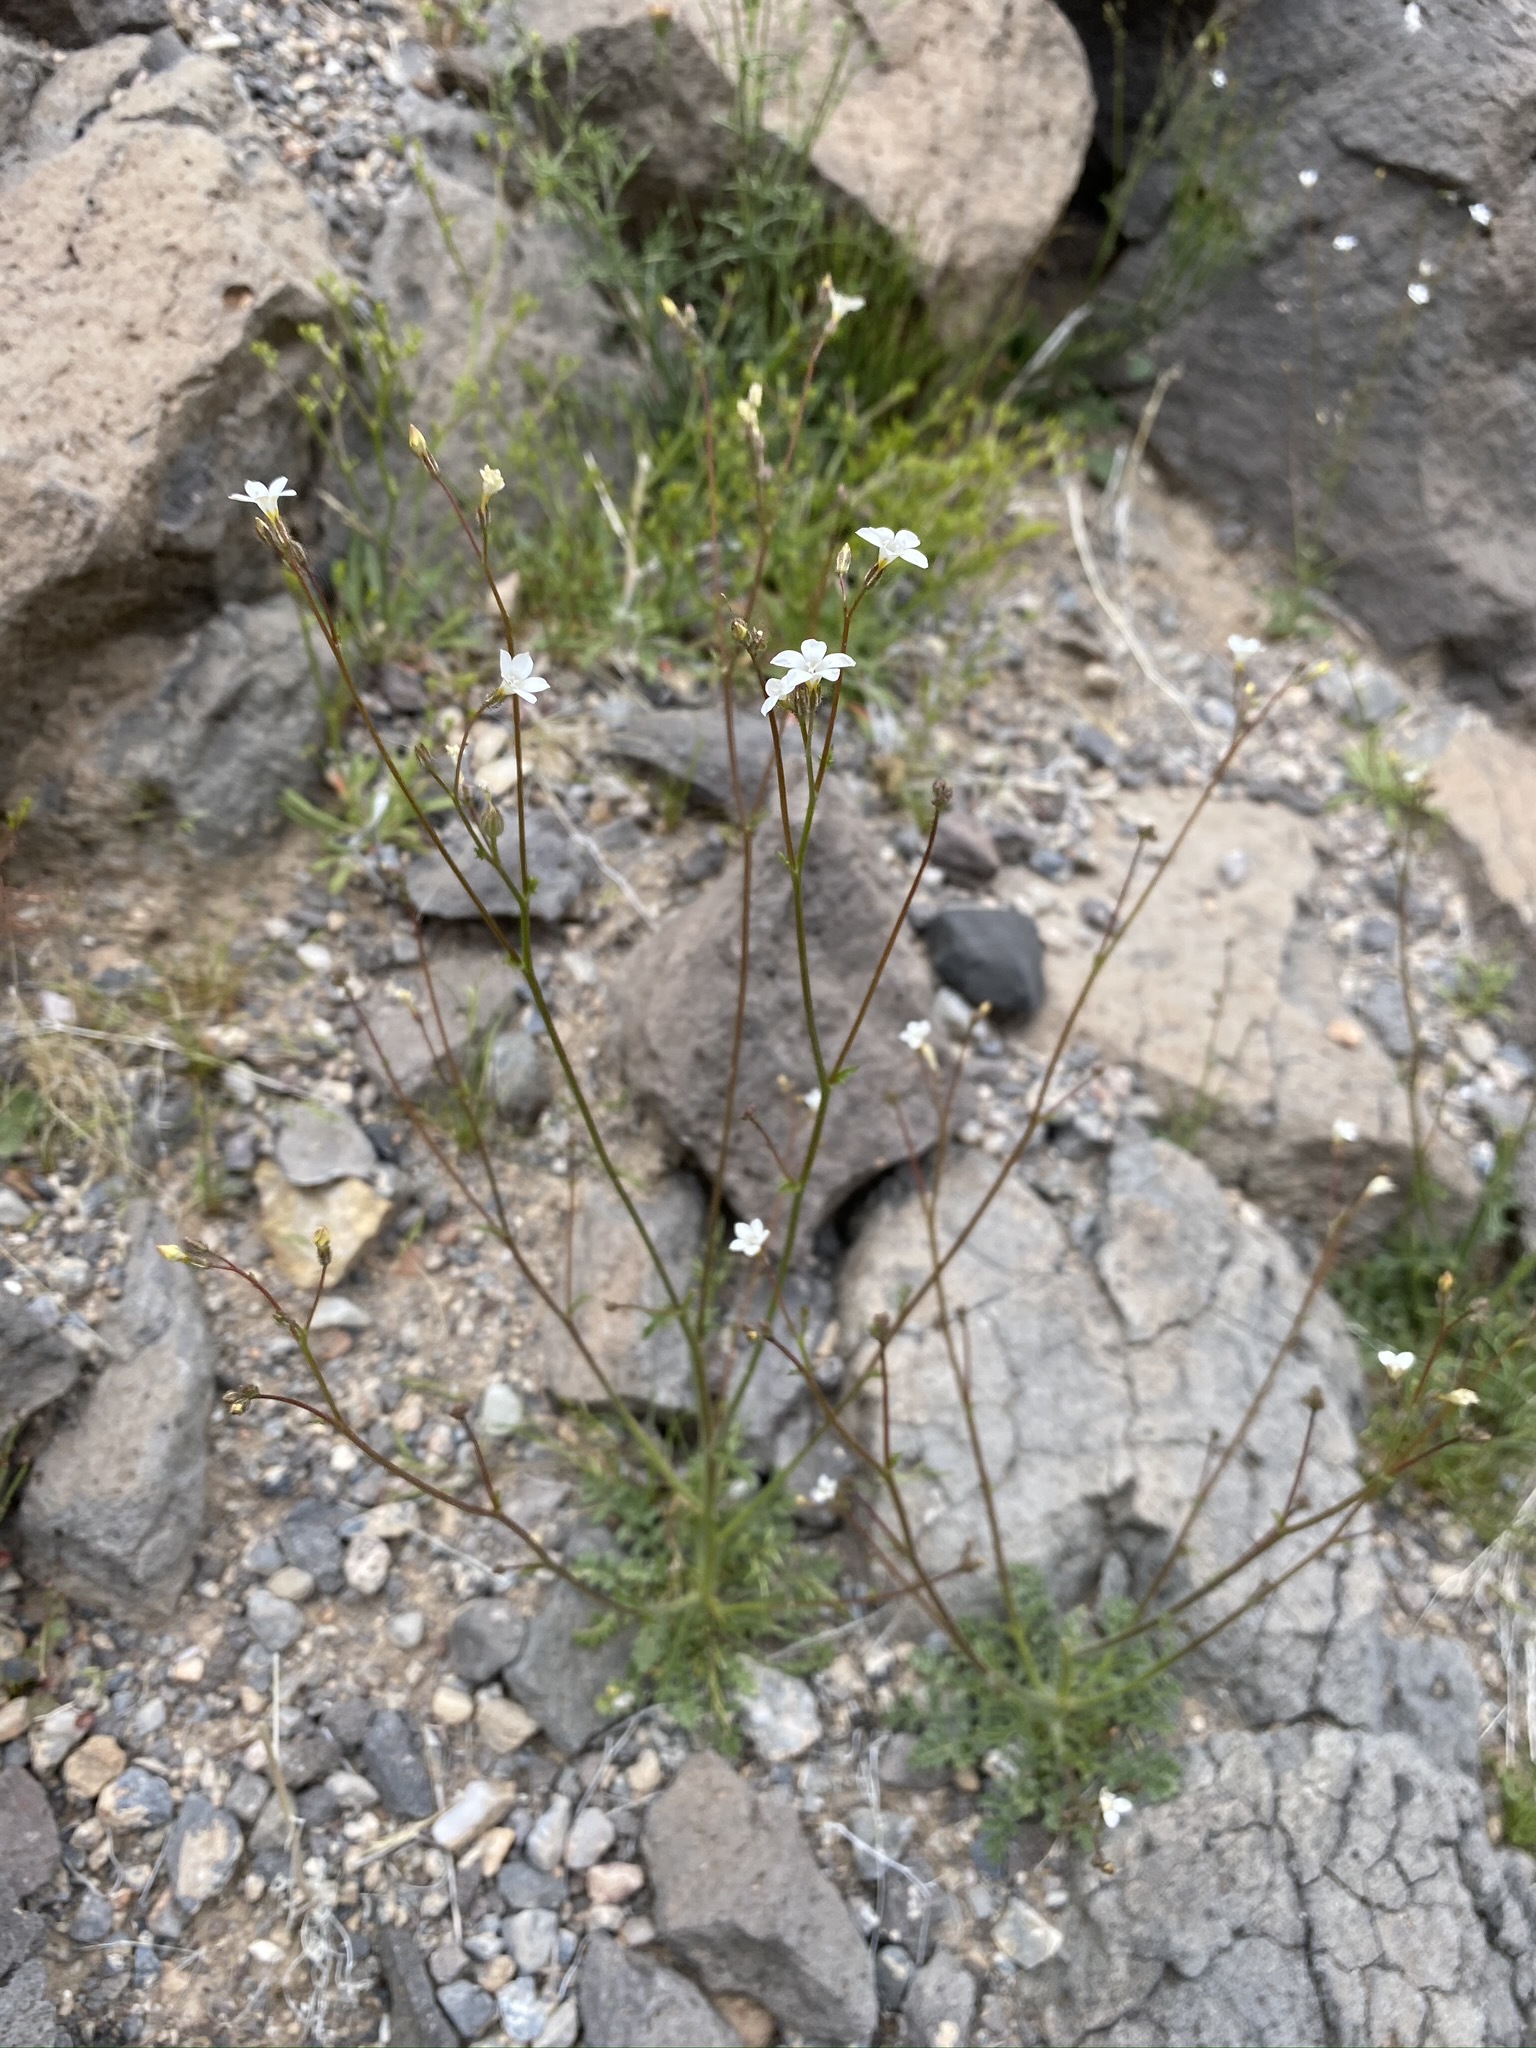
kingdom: Plantae
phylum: Tracheophyta
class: Magnoliopsida
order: Ericales
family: Polemoniaceae
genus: Gilia
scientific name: Gilia stellata
